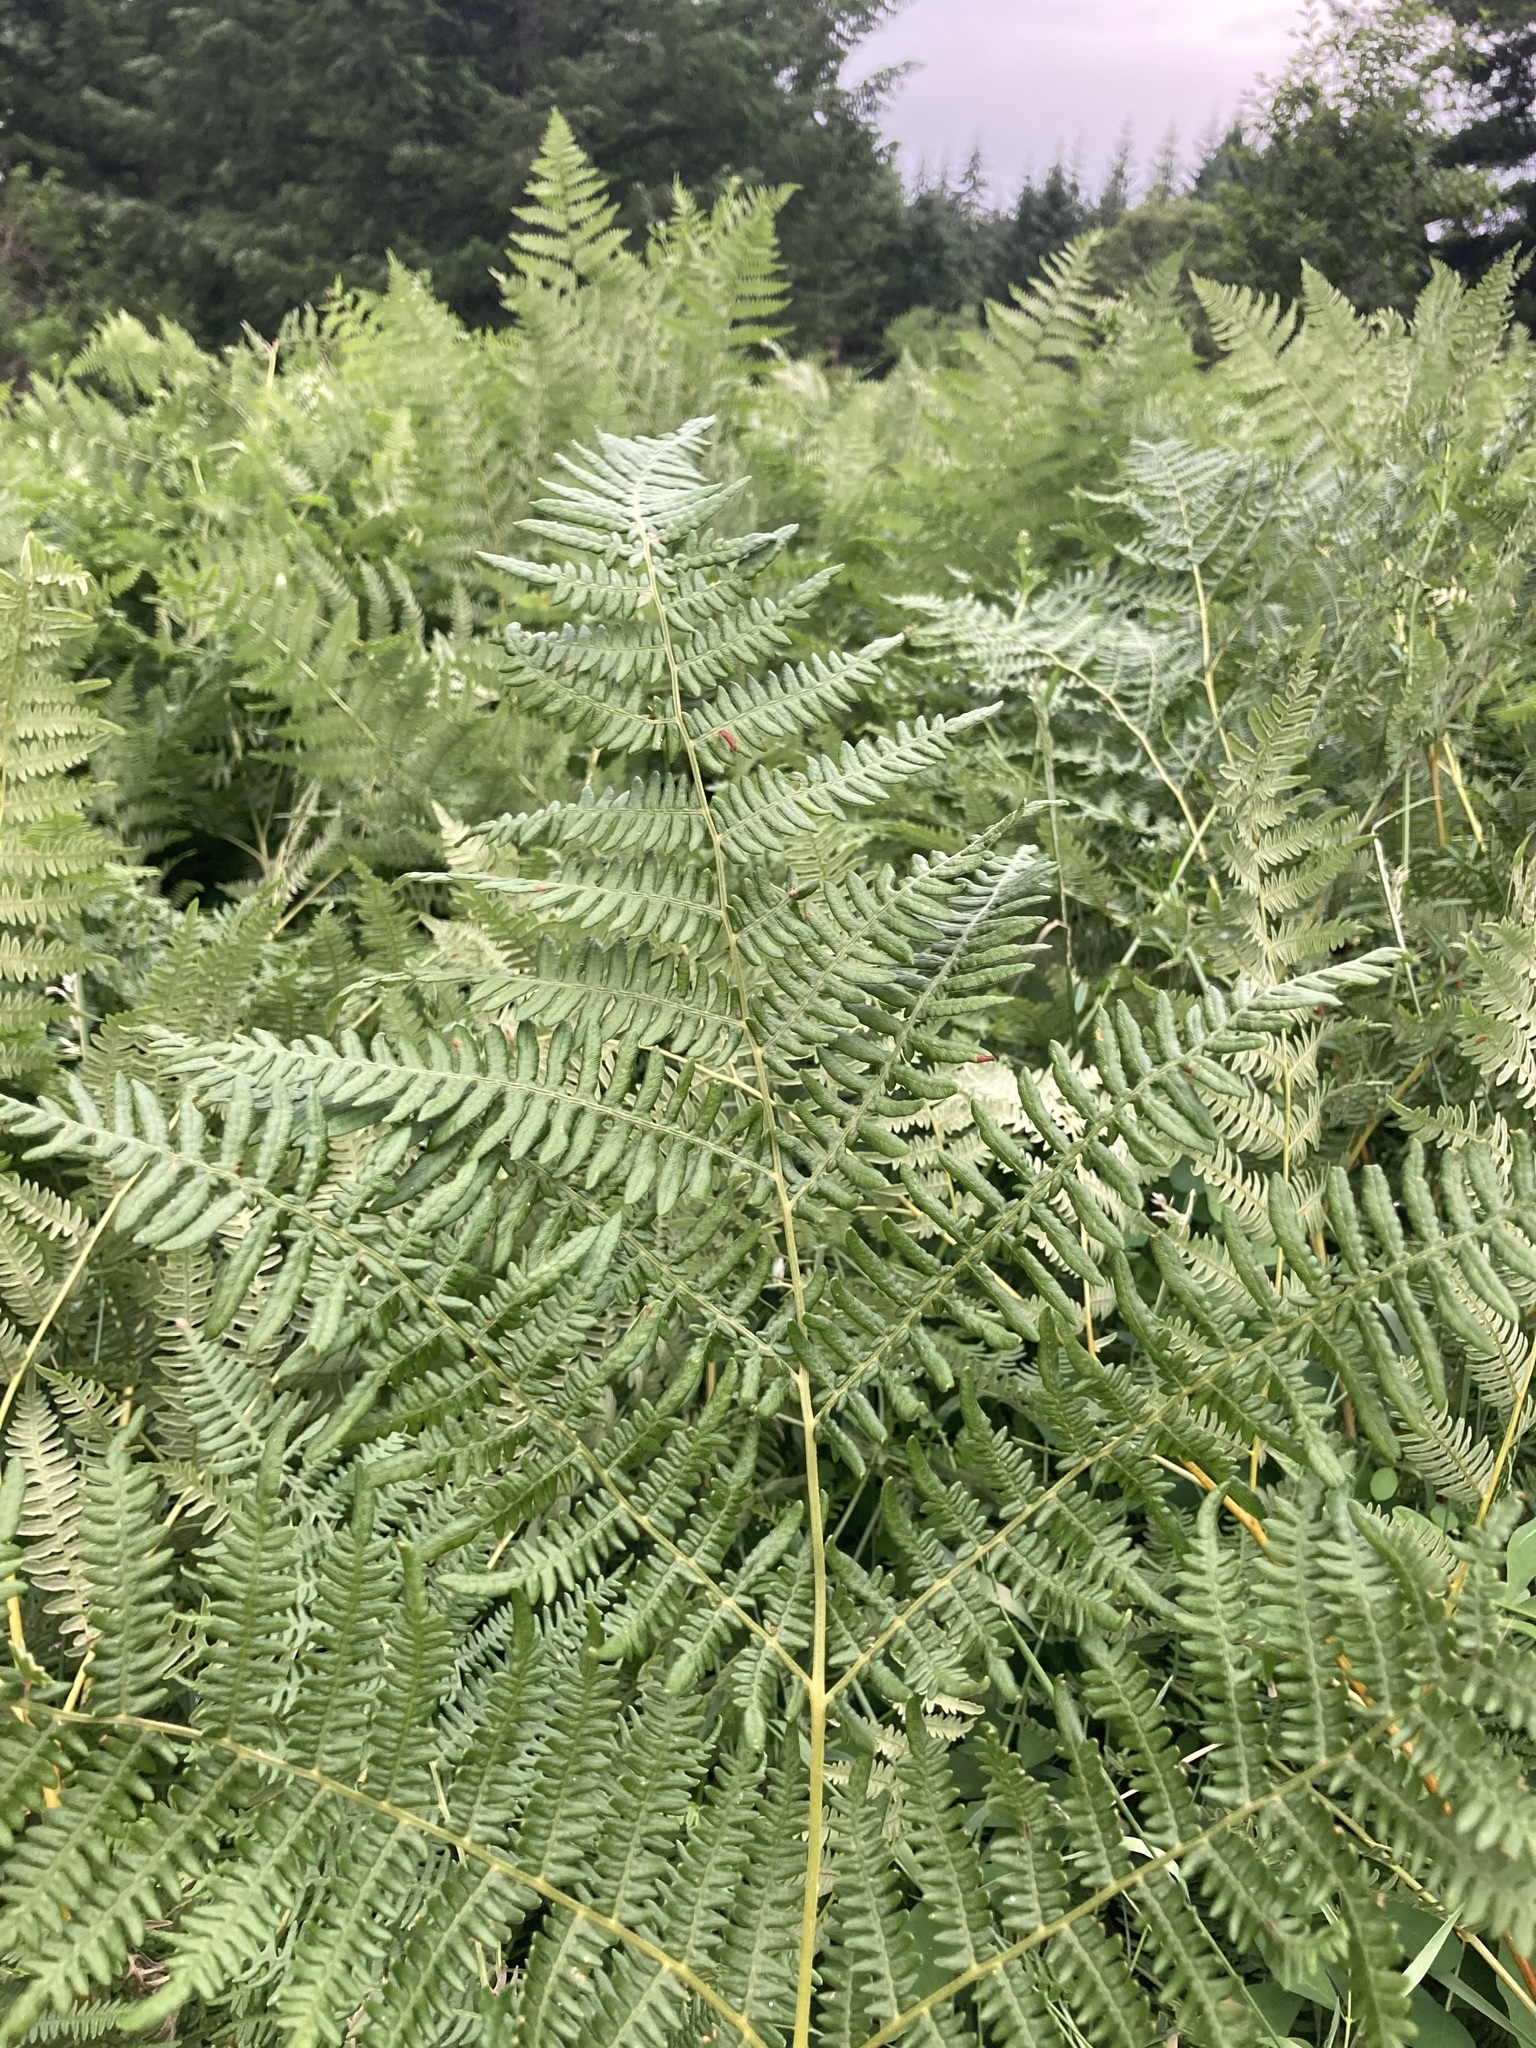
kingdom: Plantae
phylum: Tracheophyta
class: Polypodiopsida
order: Polypodiales
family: Dennstaedtiaceae
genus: Pteridium
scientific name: Pteridium aquilinum
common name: Bracken
